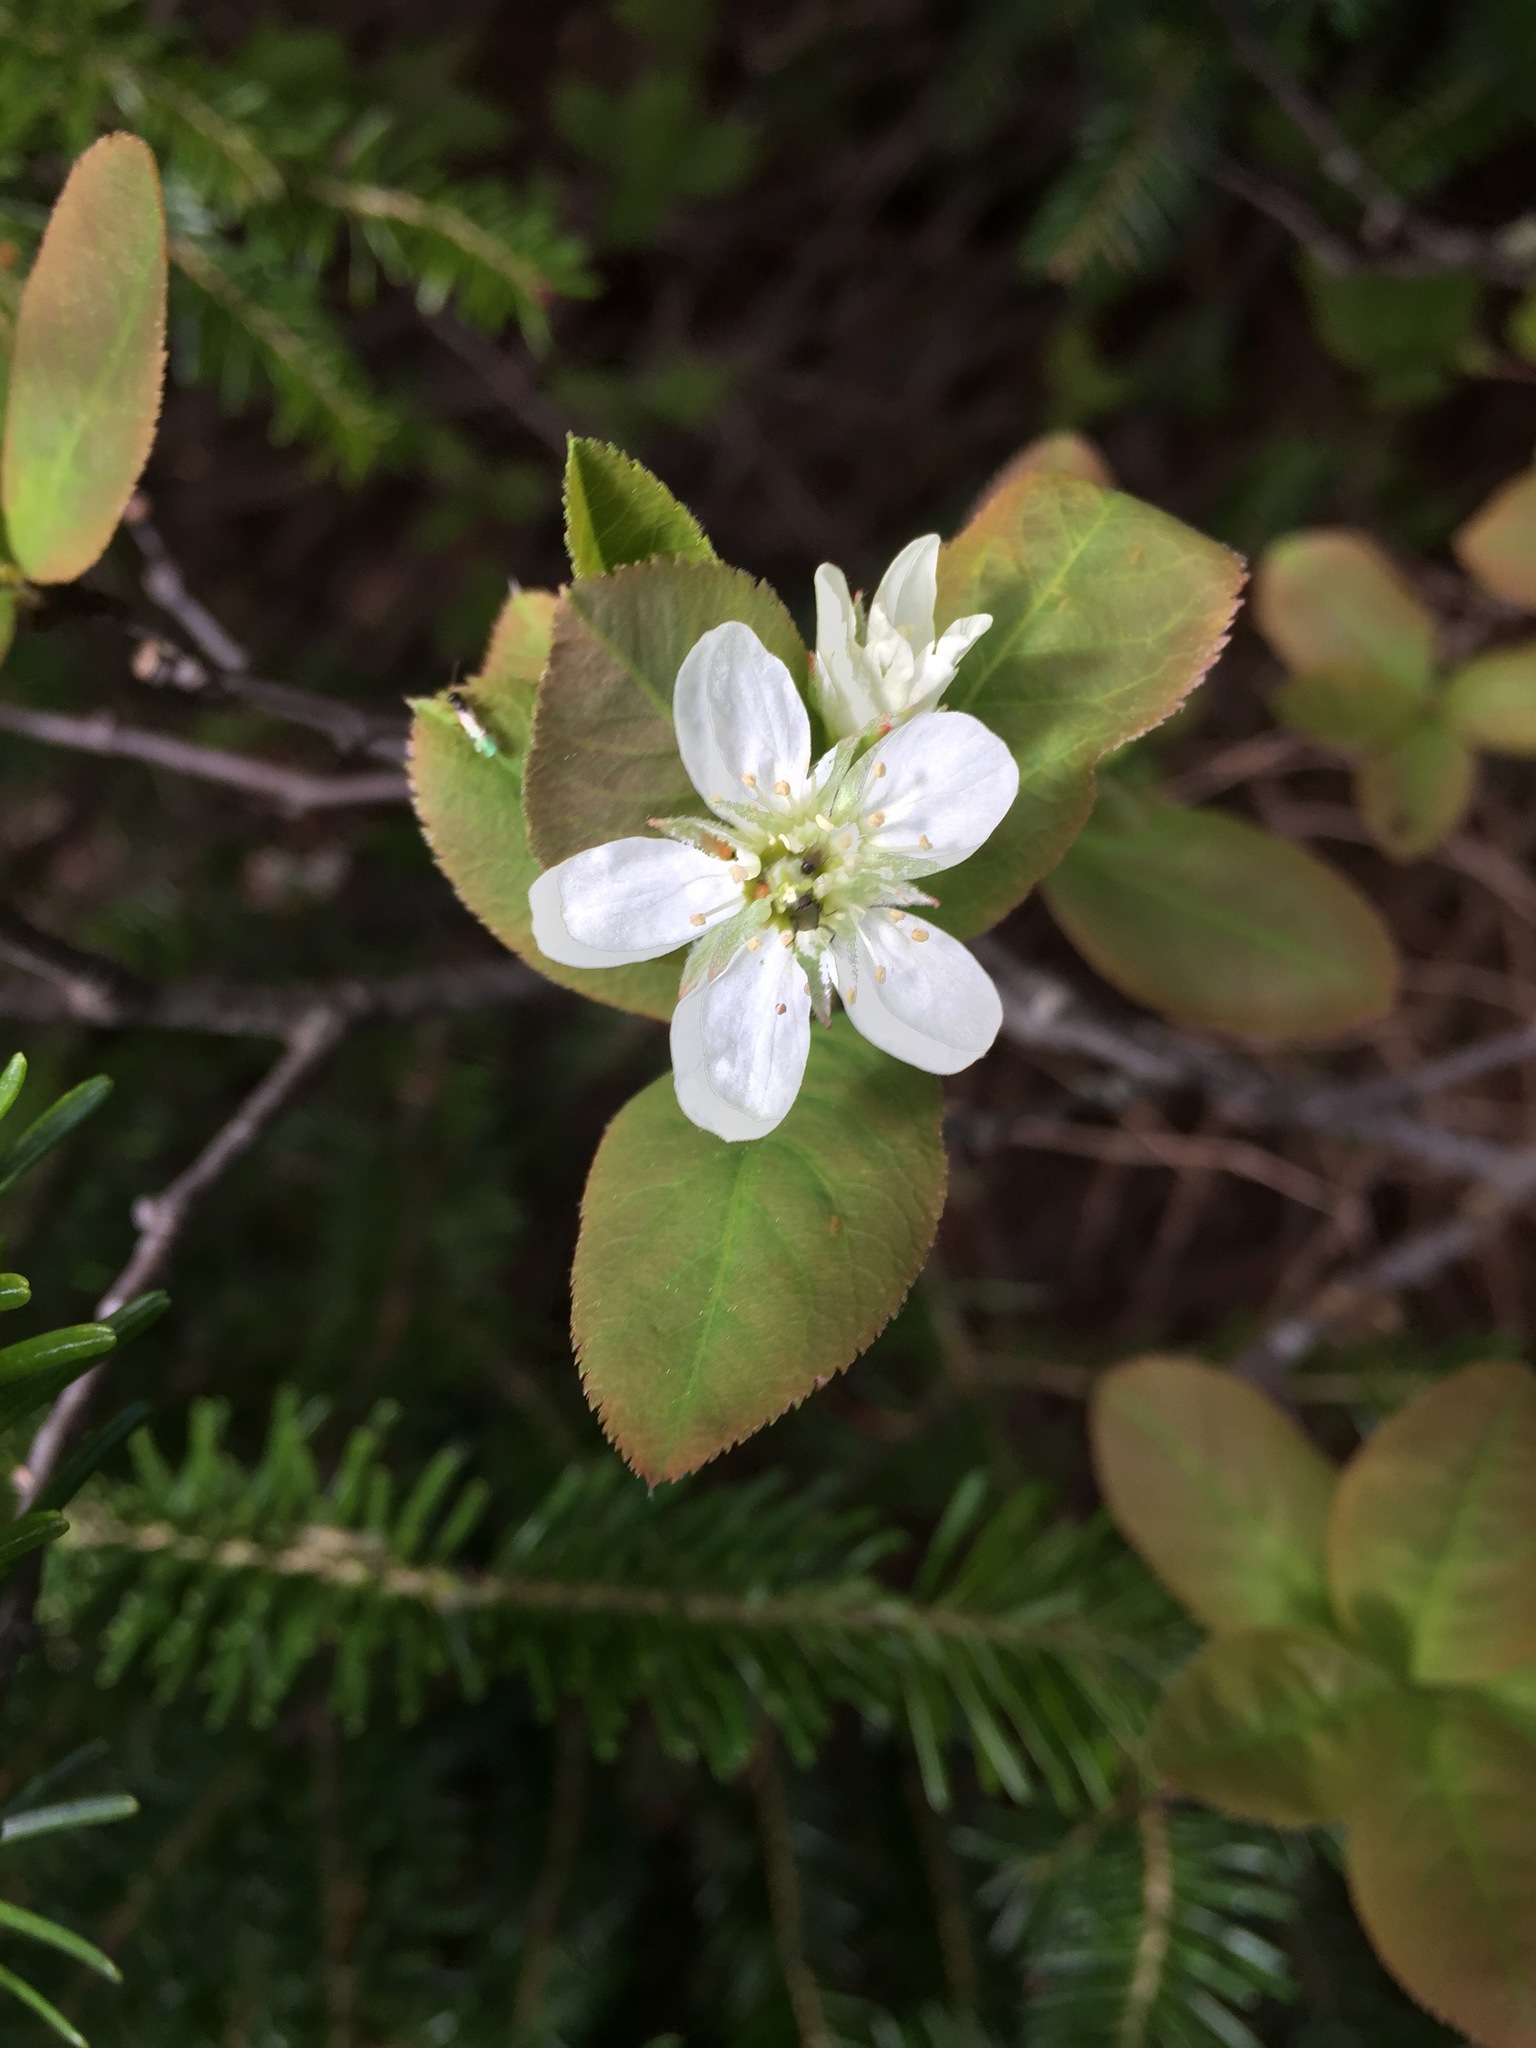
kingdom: Plantae
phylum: Tracheophyta
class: Magnoliopsida
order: Rosales
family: Rosaceae
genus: Amelanchier
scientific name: Amelanchier bartramiana
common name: Mountain serviceberry
